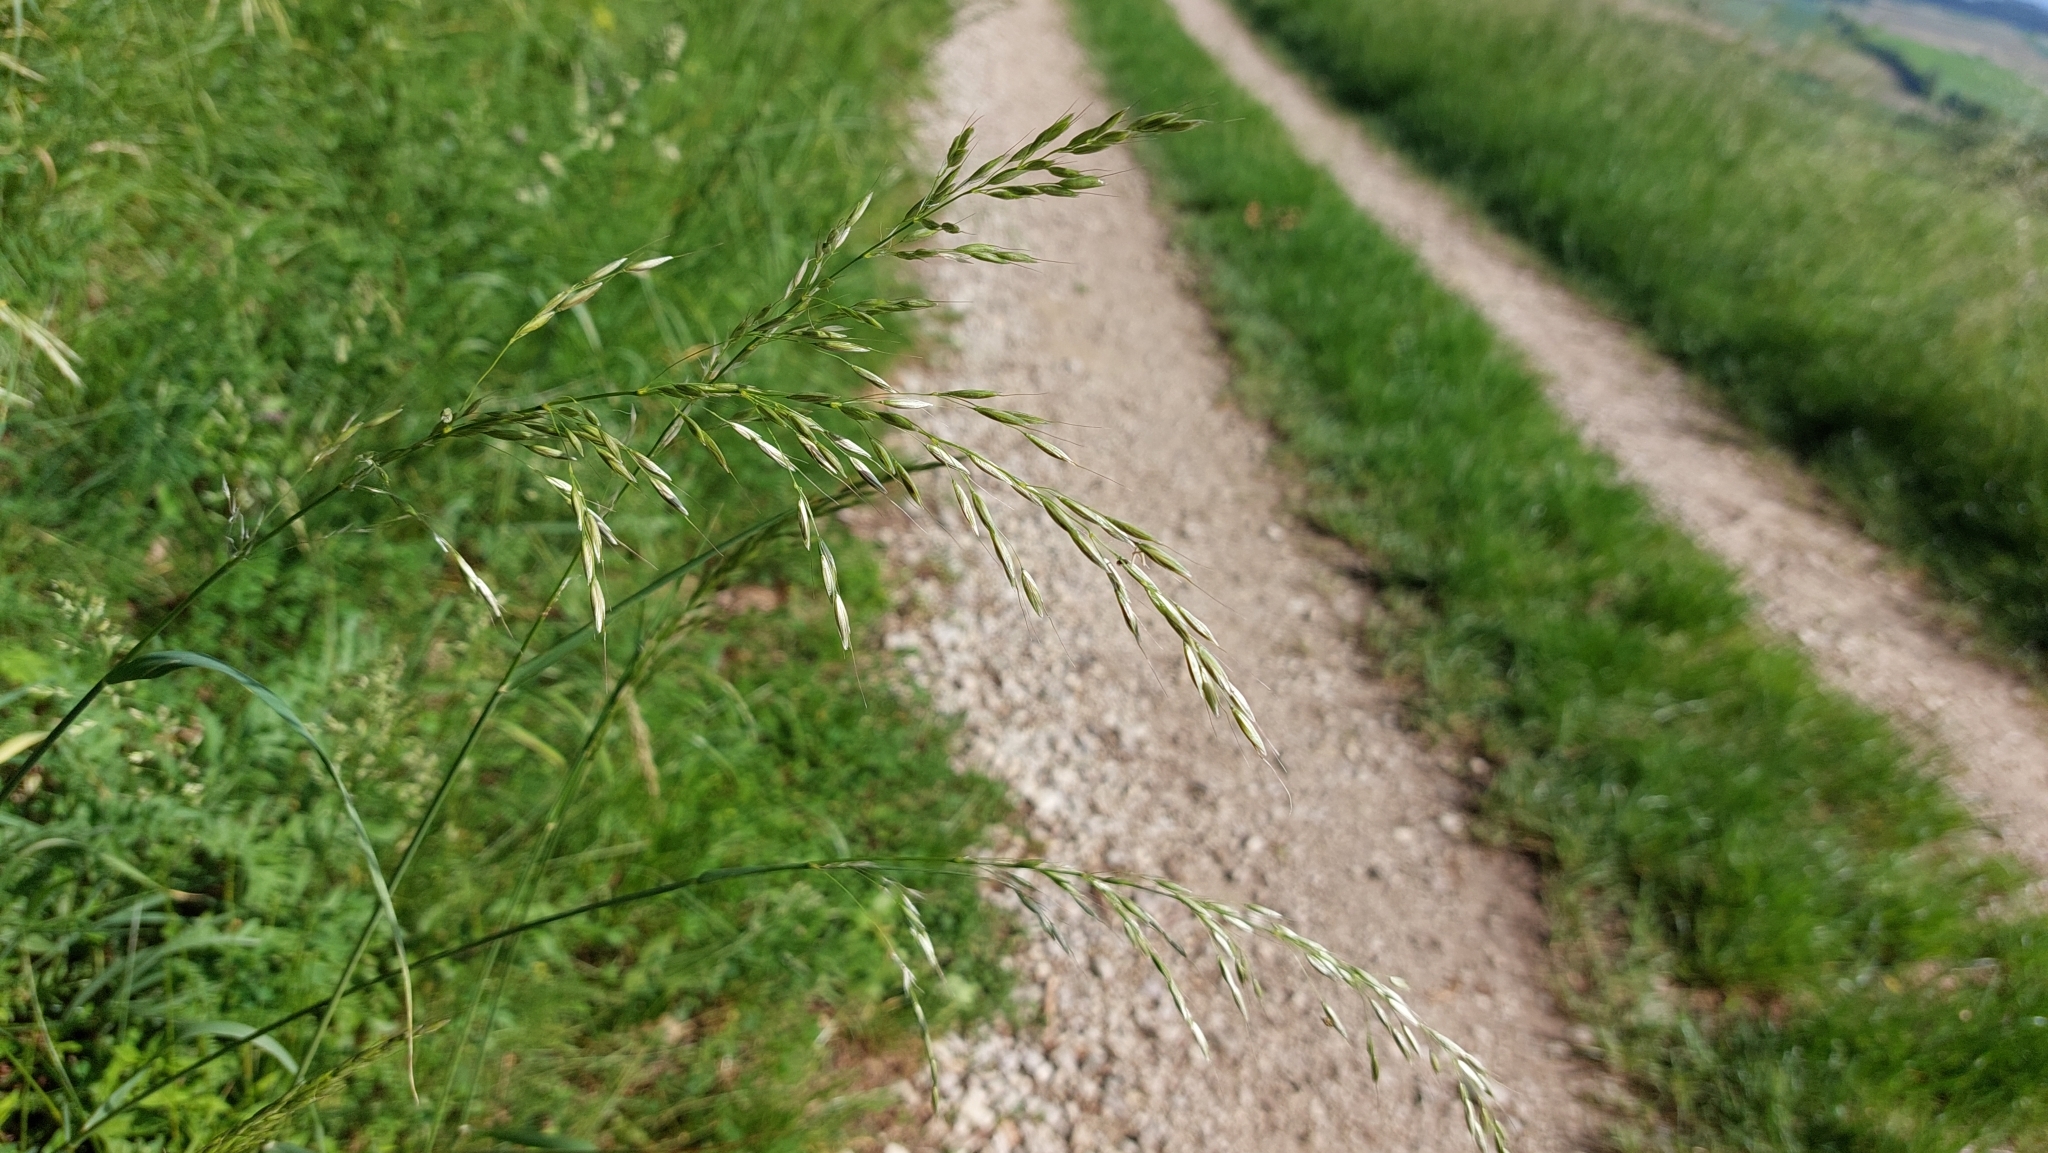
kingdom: Plantae
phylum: Tracheophyta
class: Liliopsida
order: Poales
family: Poaceae
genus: Arrhenatherum
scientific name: Arrhenatherum elatius
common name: Tall oatgrass
